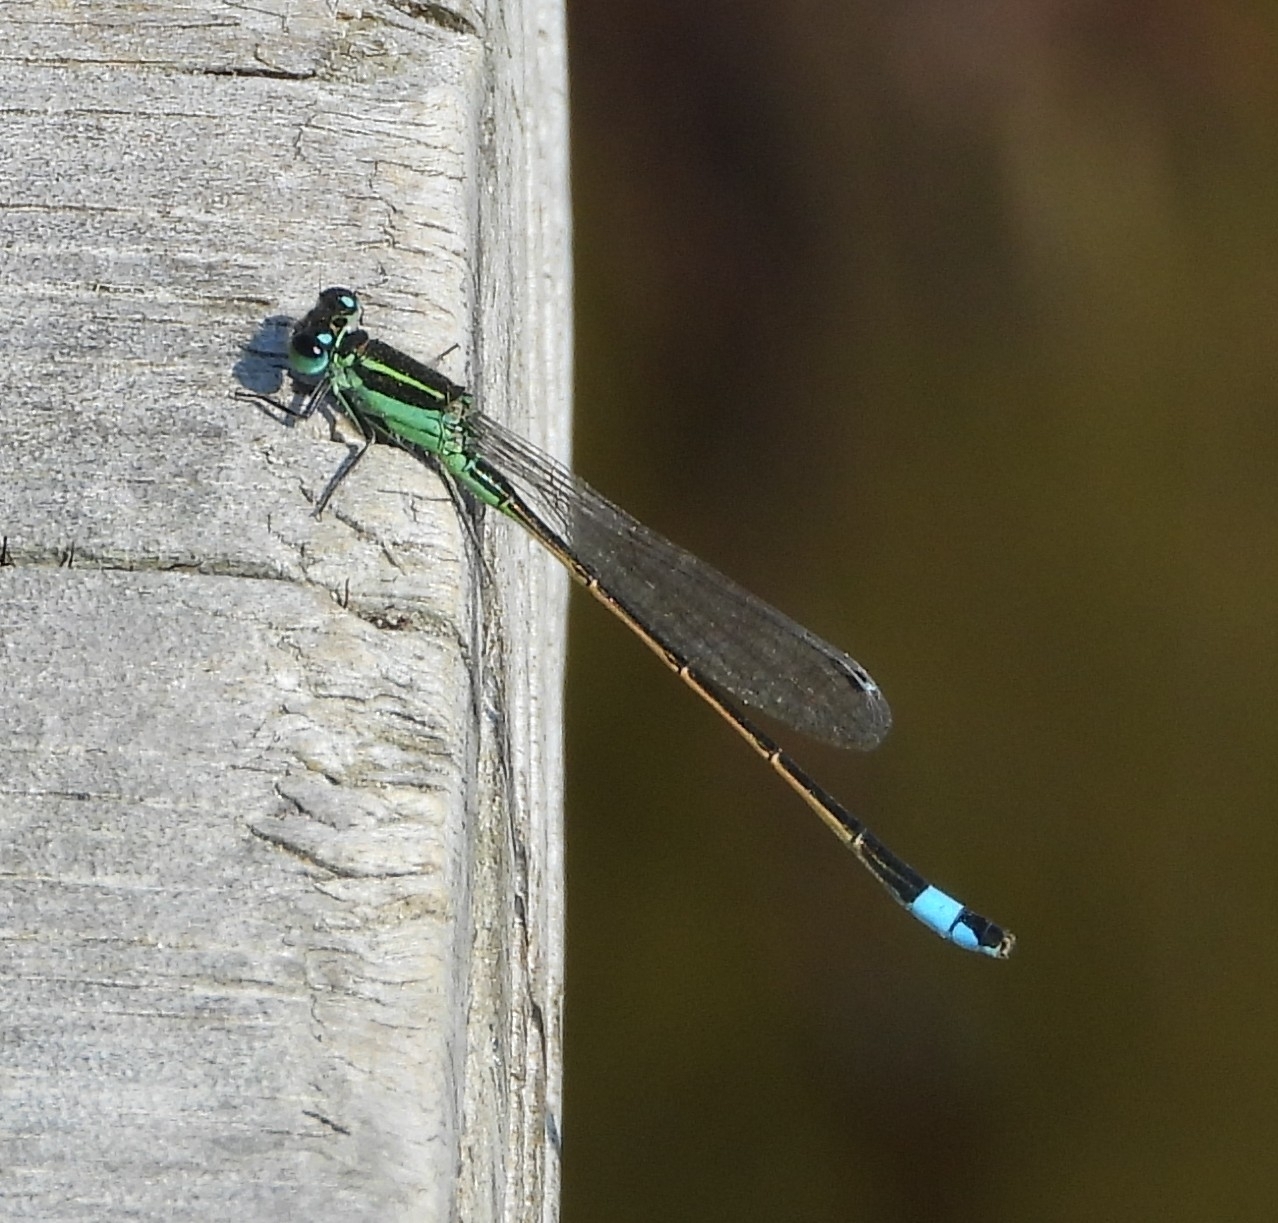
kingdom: Animalia
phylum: Arthropoda
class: Insecta
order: Odonata
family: Coenagrionidae
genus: Ischnura
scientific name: Ischnura ramburii
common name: Rambur's forktail
